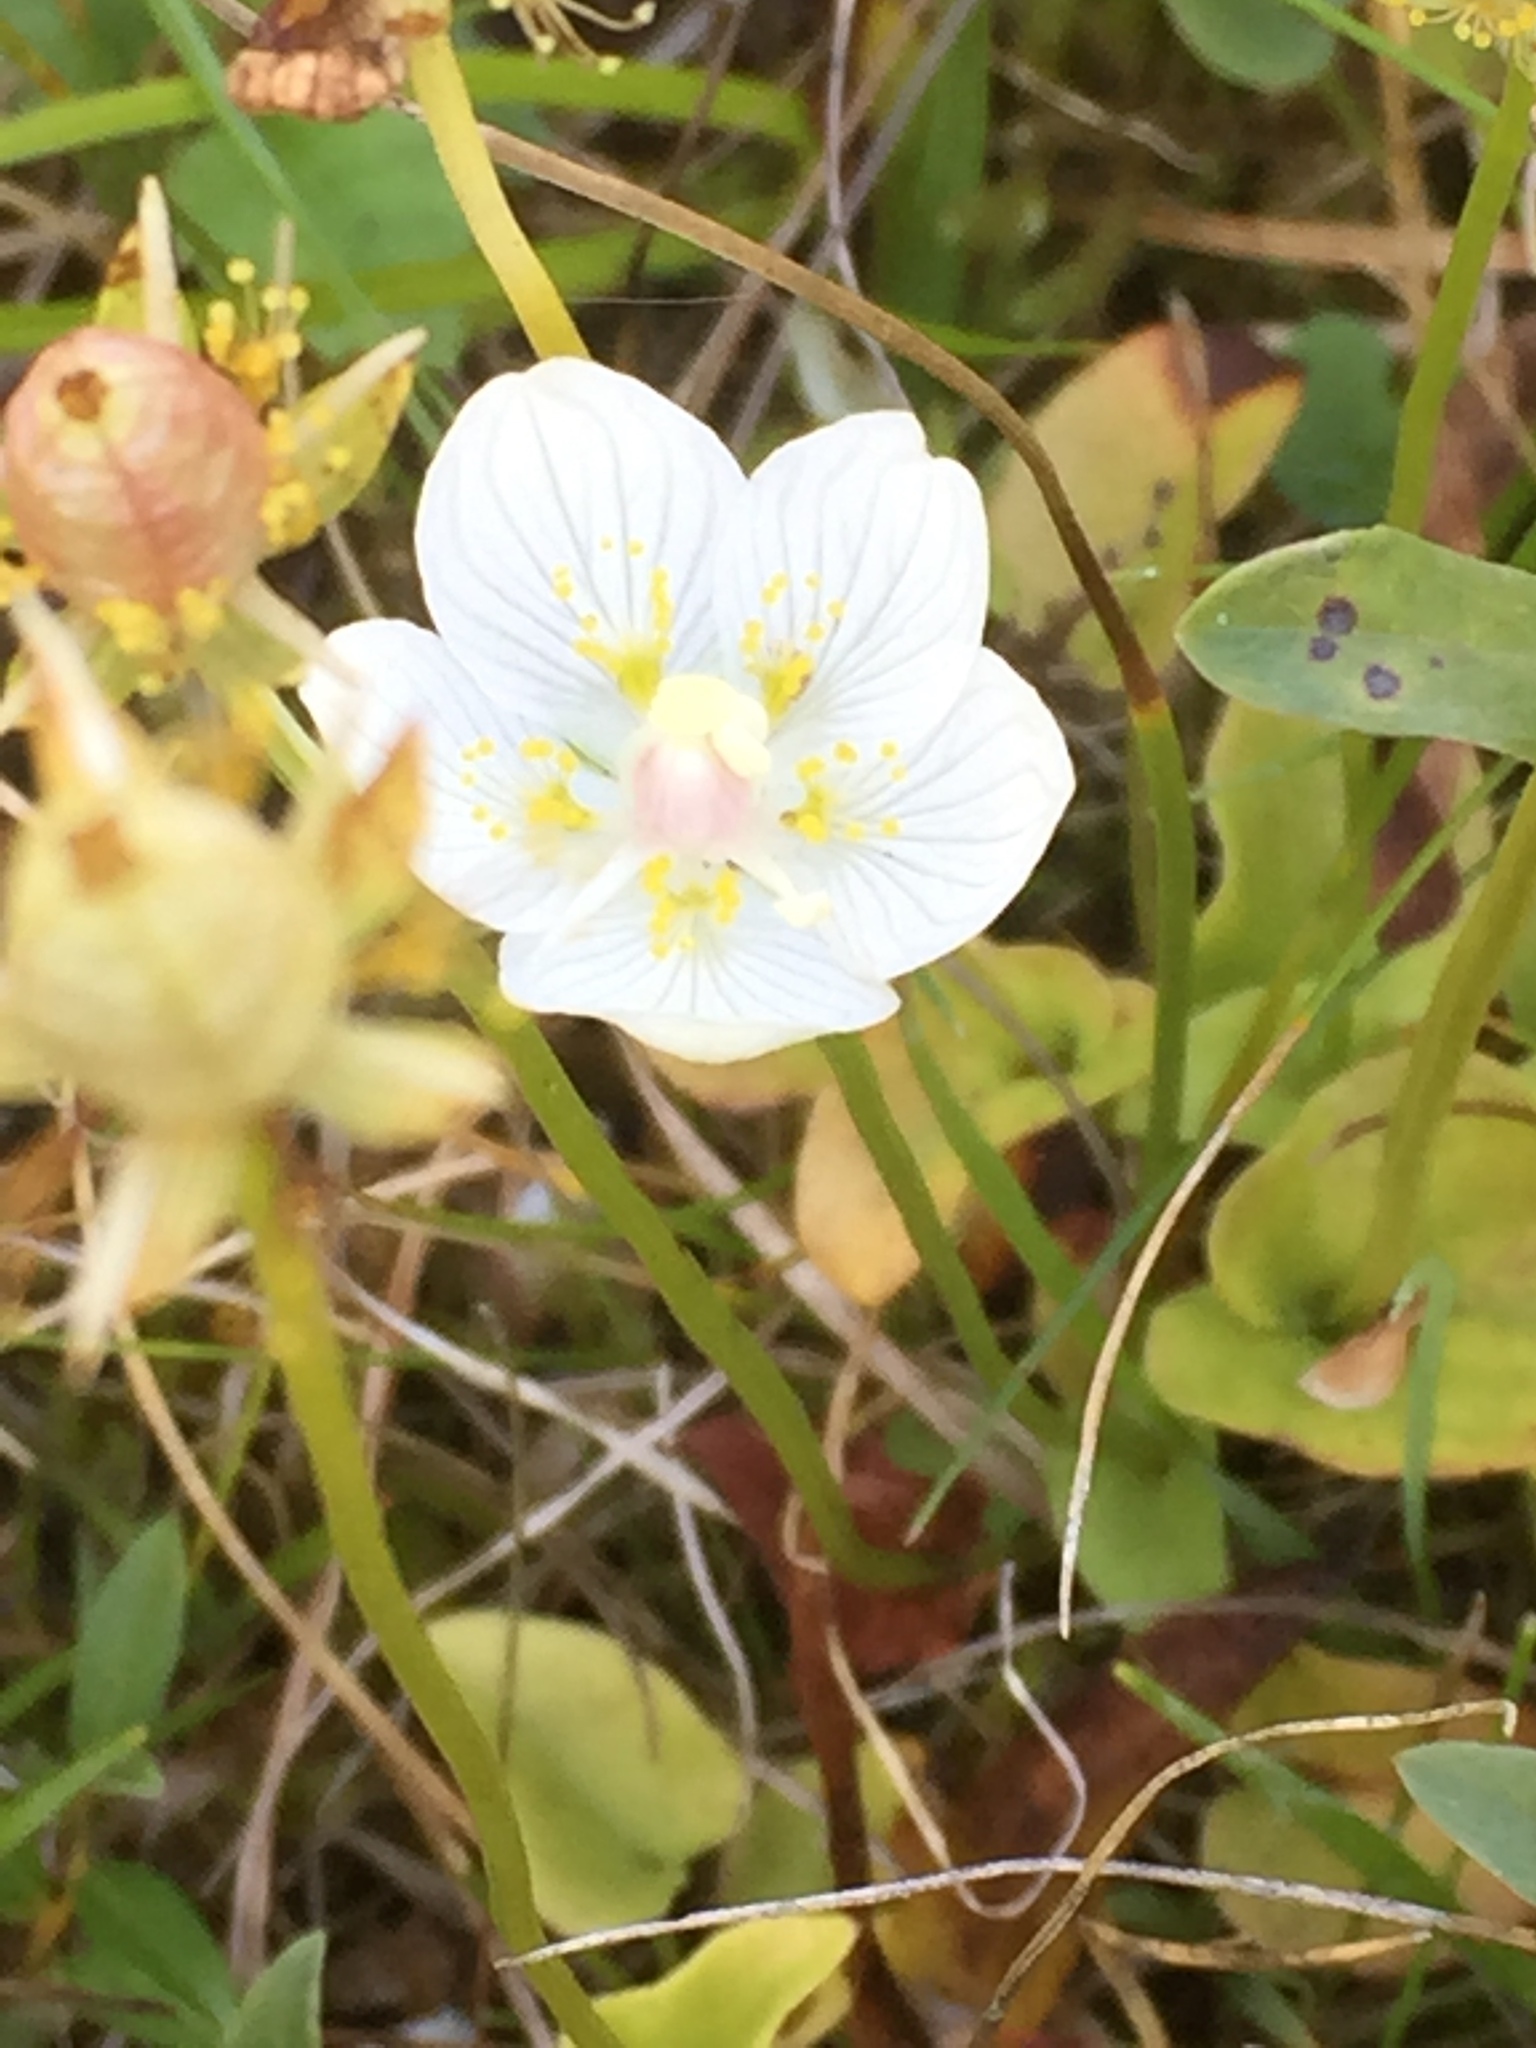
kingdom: Plantae
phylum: Tracheophyta
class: Magnoliopsida
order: Celastrales
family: Parnassiaceae
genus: Parnassia
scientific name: Parnassia palustris
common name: Grass-of-parnassus
